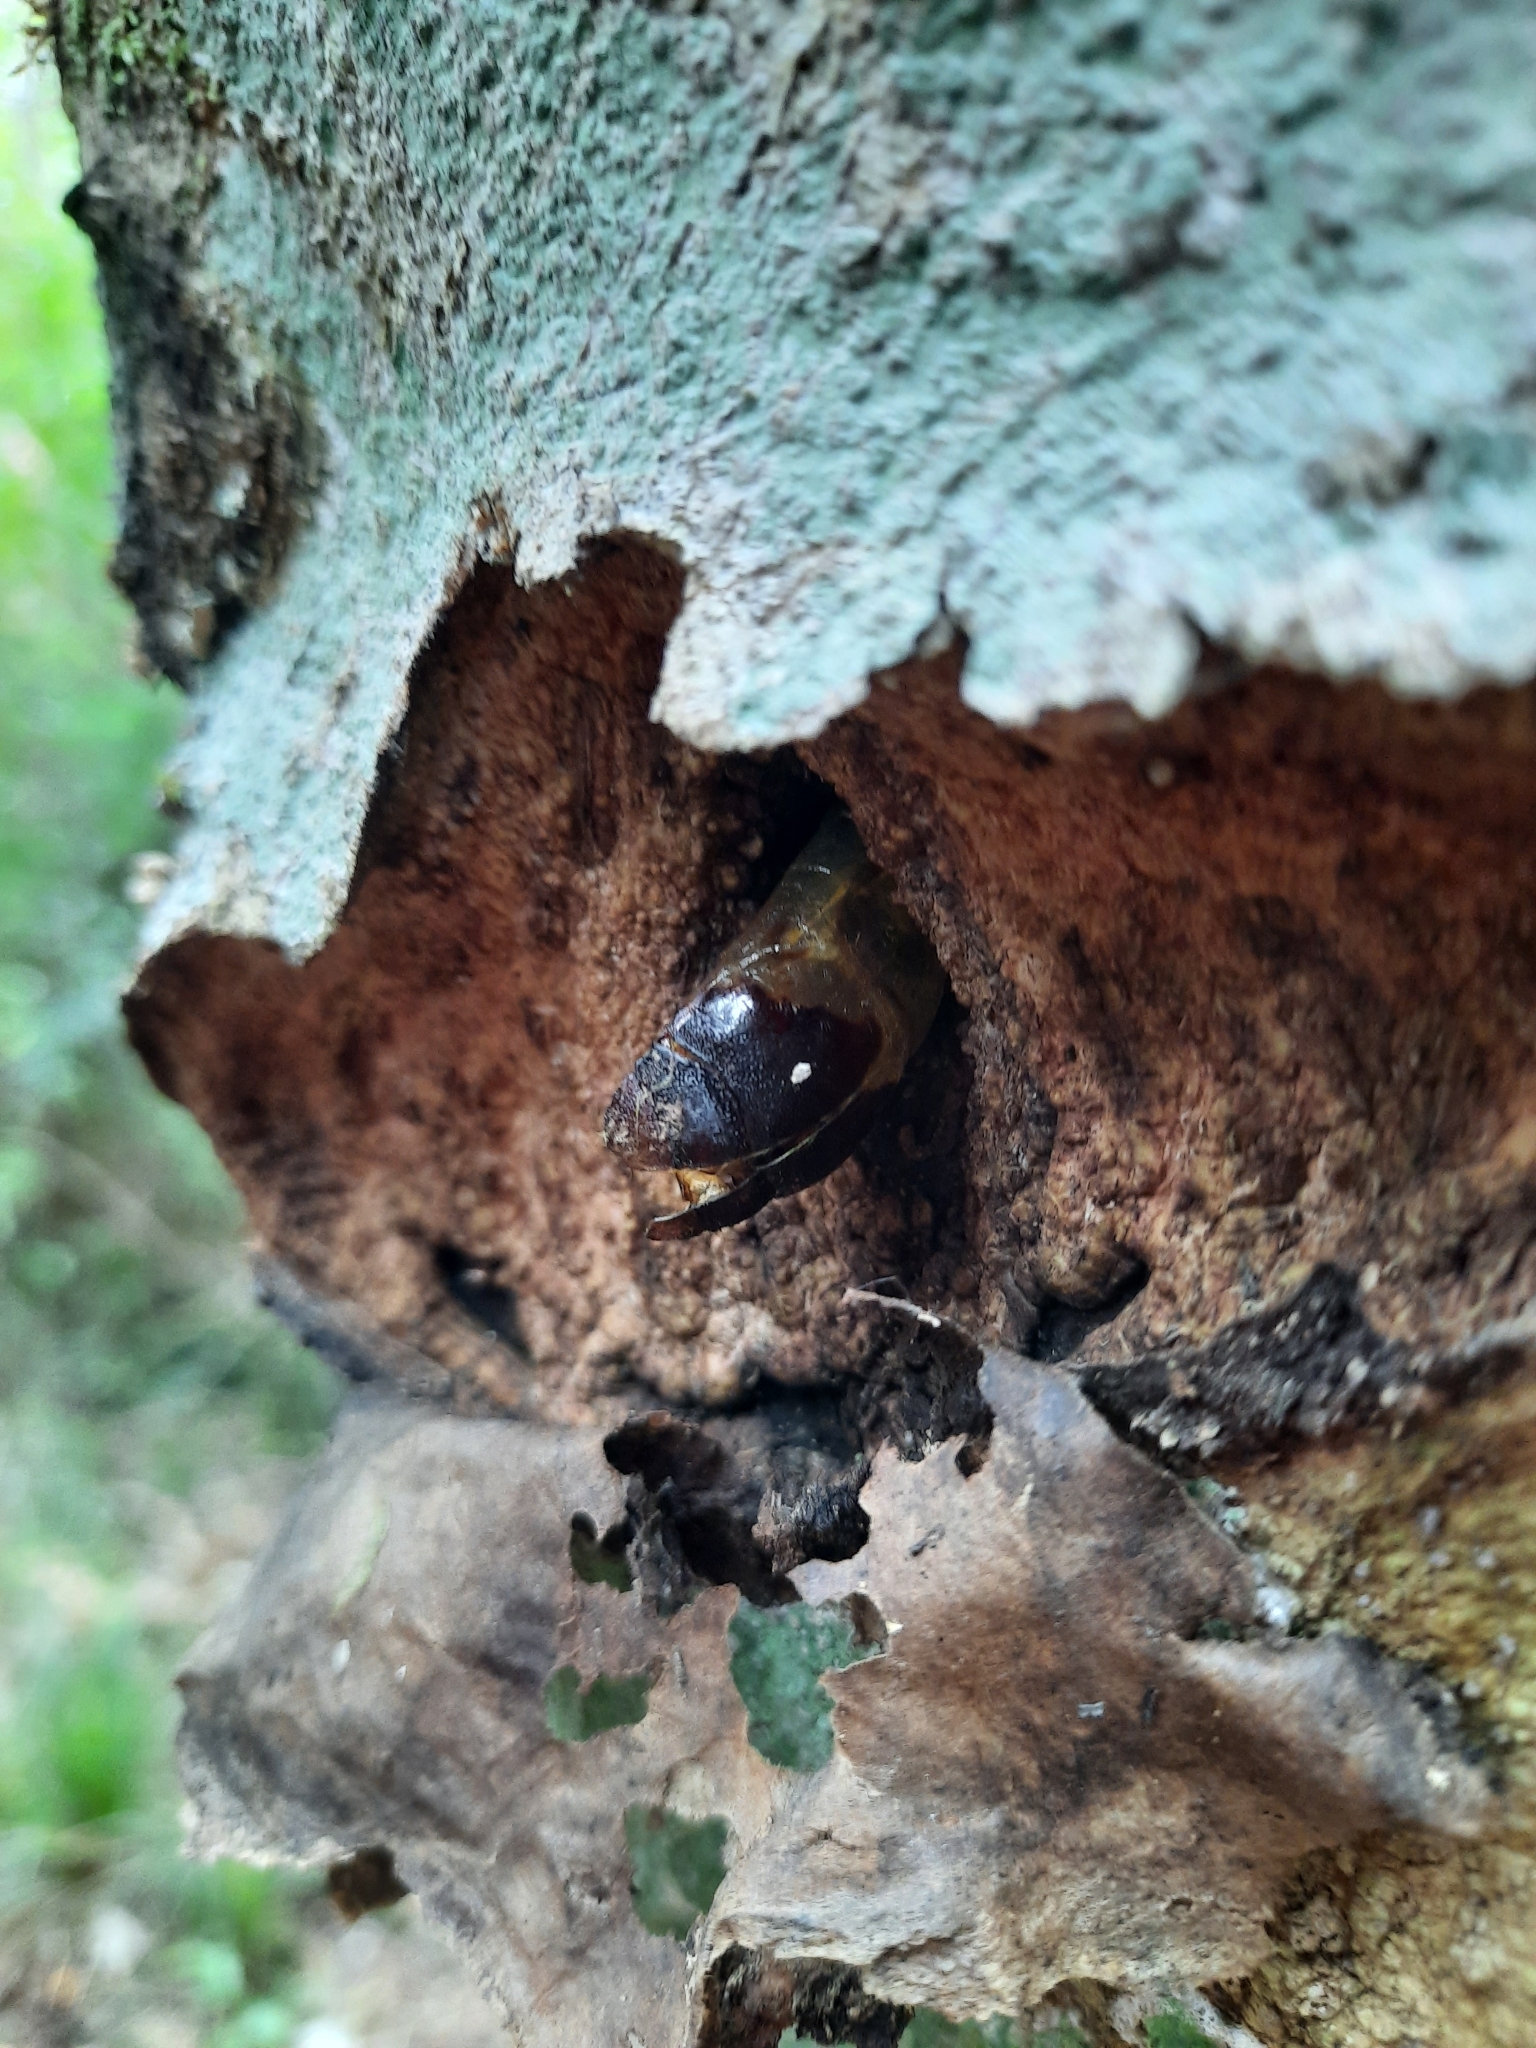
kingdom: Animalia
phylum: Arthropoda
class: Insecta
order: Lepidoptera
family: Hepialidae
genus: Aenetus
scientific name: Aenetus virescens
